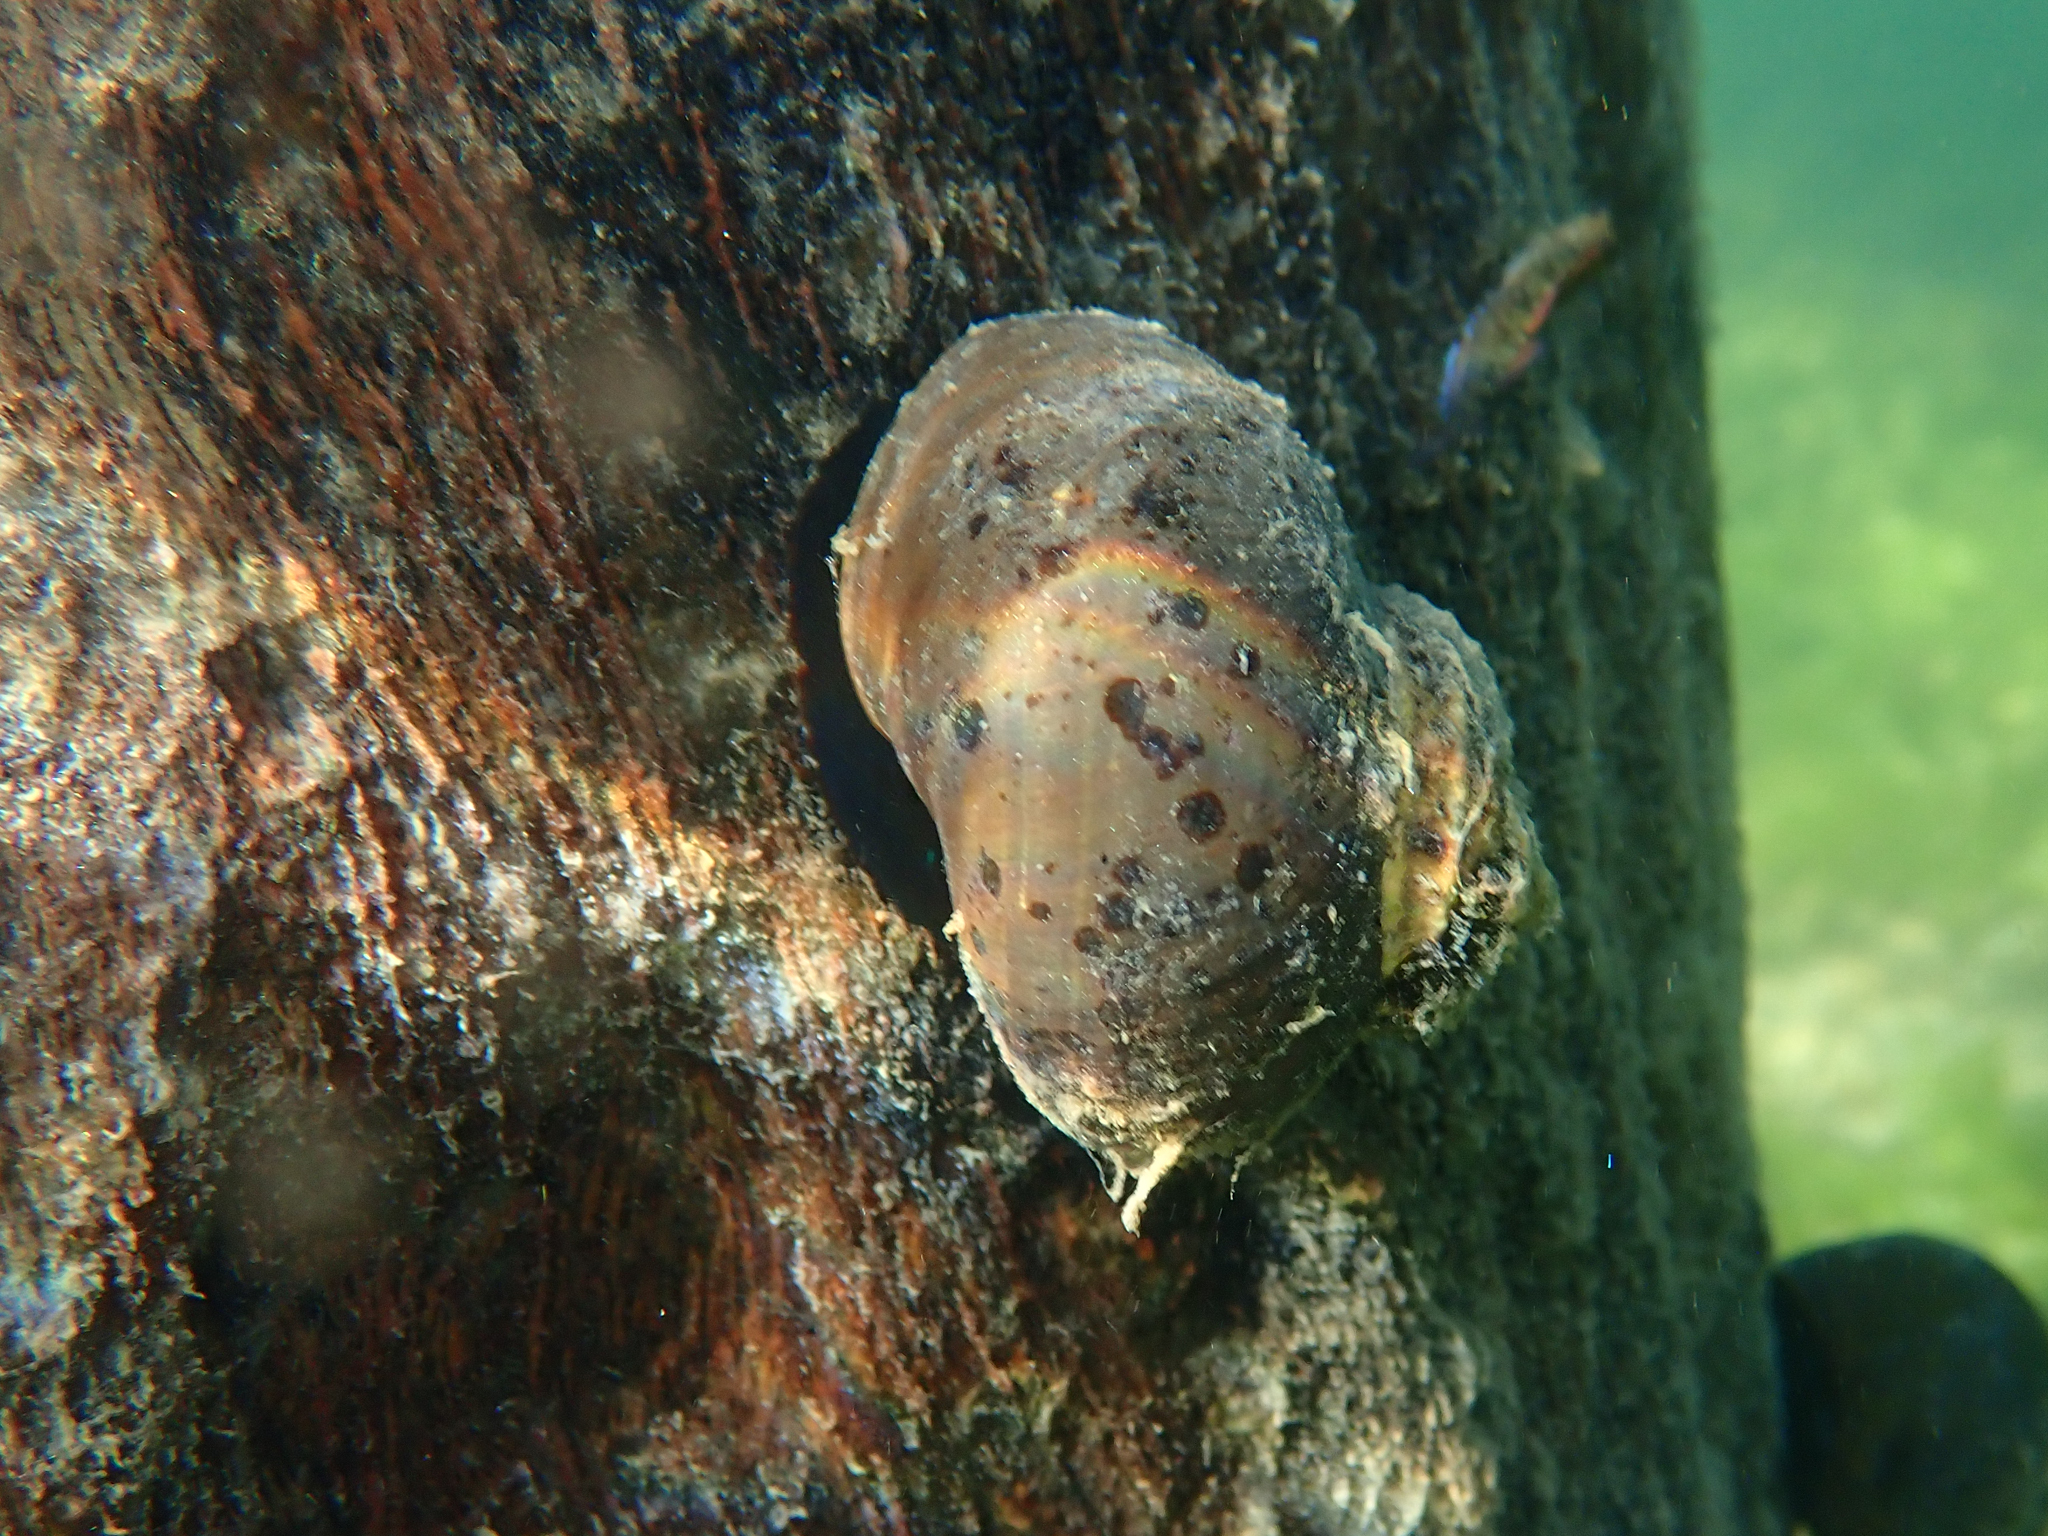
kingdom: Animalia
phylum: Mollusca
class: Gastropoda
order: Trochida
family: Turbinidae
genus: Lunella
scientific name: Lunella smaragda
